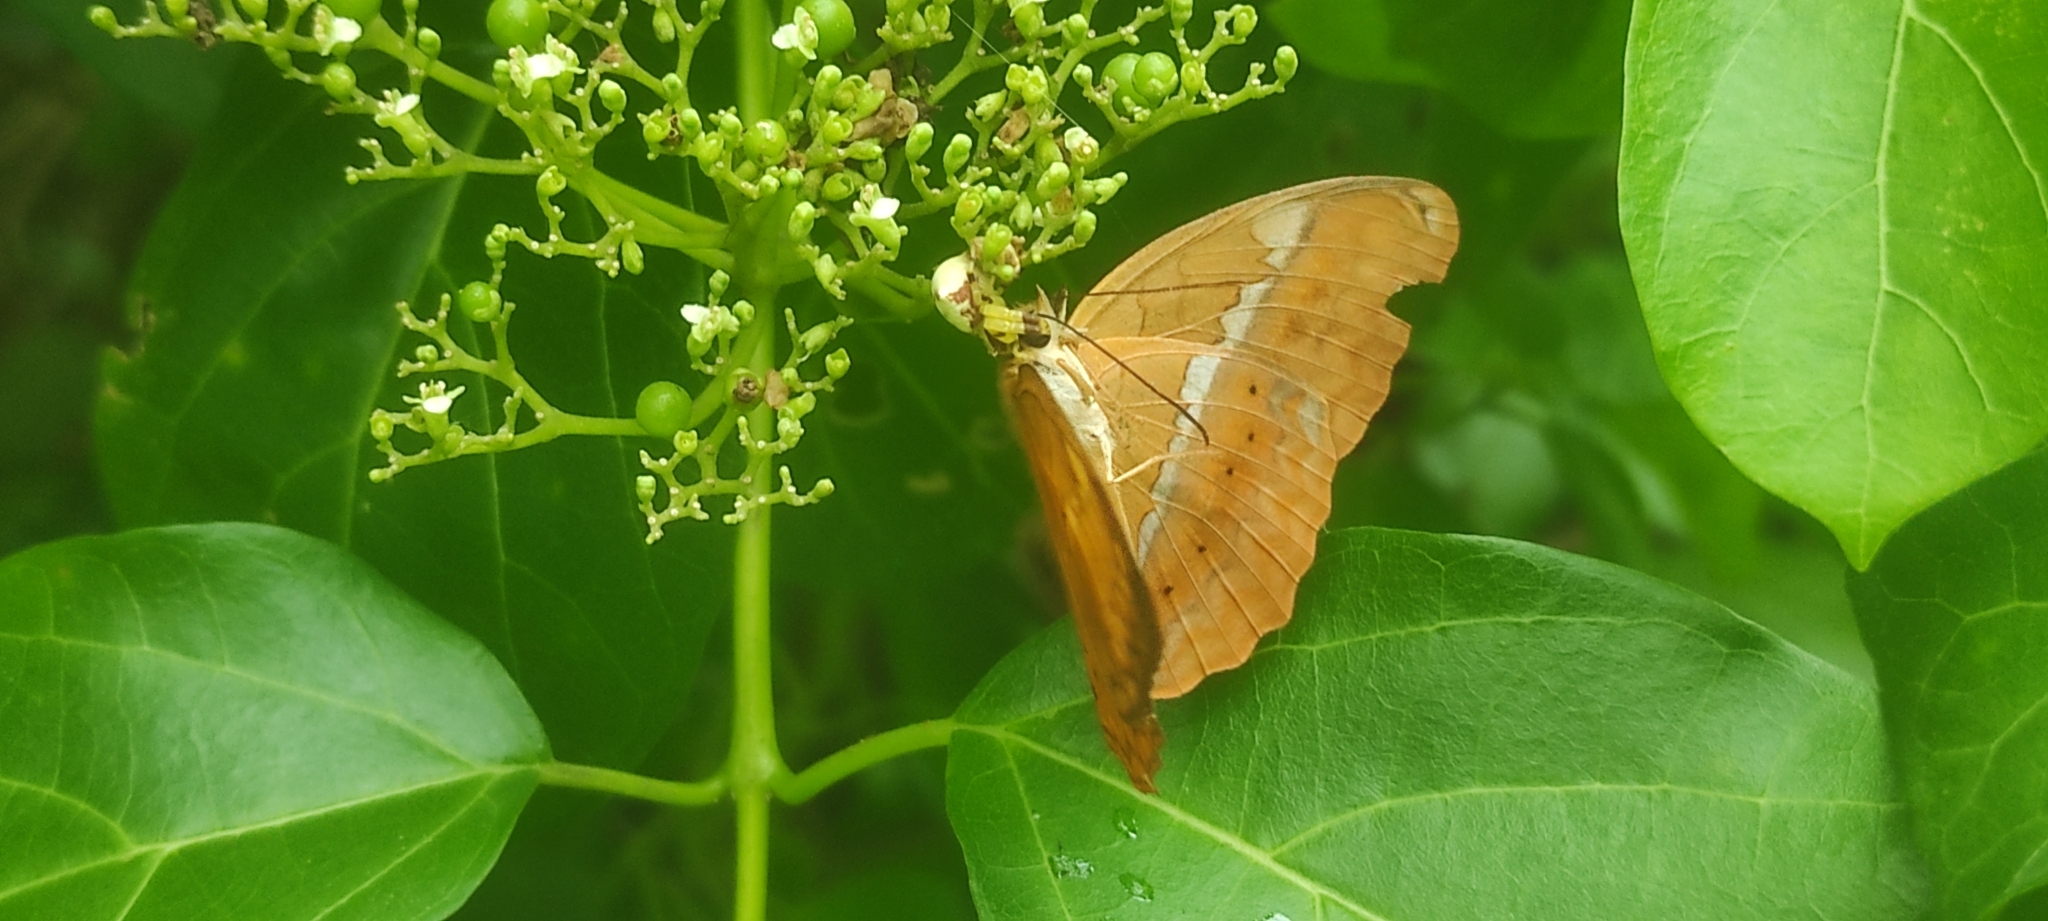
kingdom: Animalia
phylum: Arthropoda
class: Insecta
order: Lepidoptera
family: Nymphalidae
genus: Cirrochroa
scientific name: Cirrochroa thais
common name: Tamil yeoman
